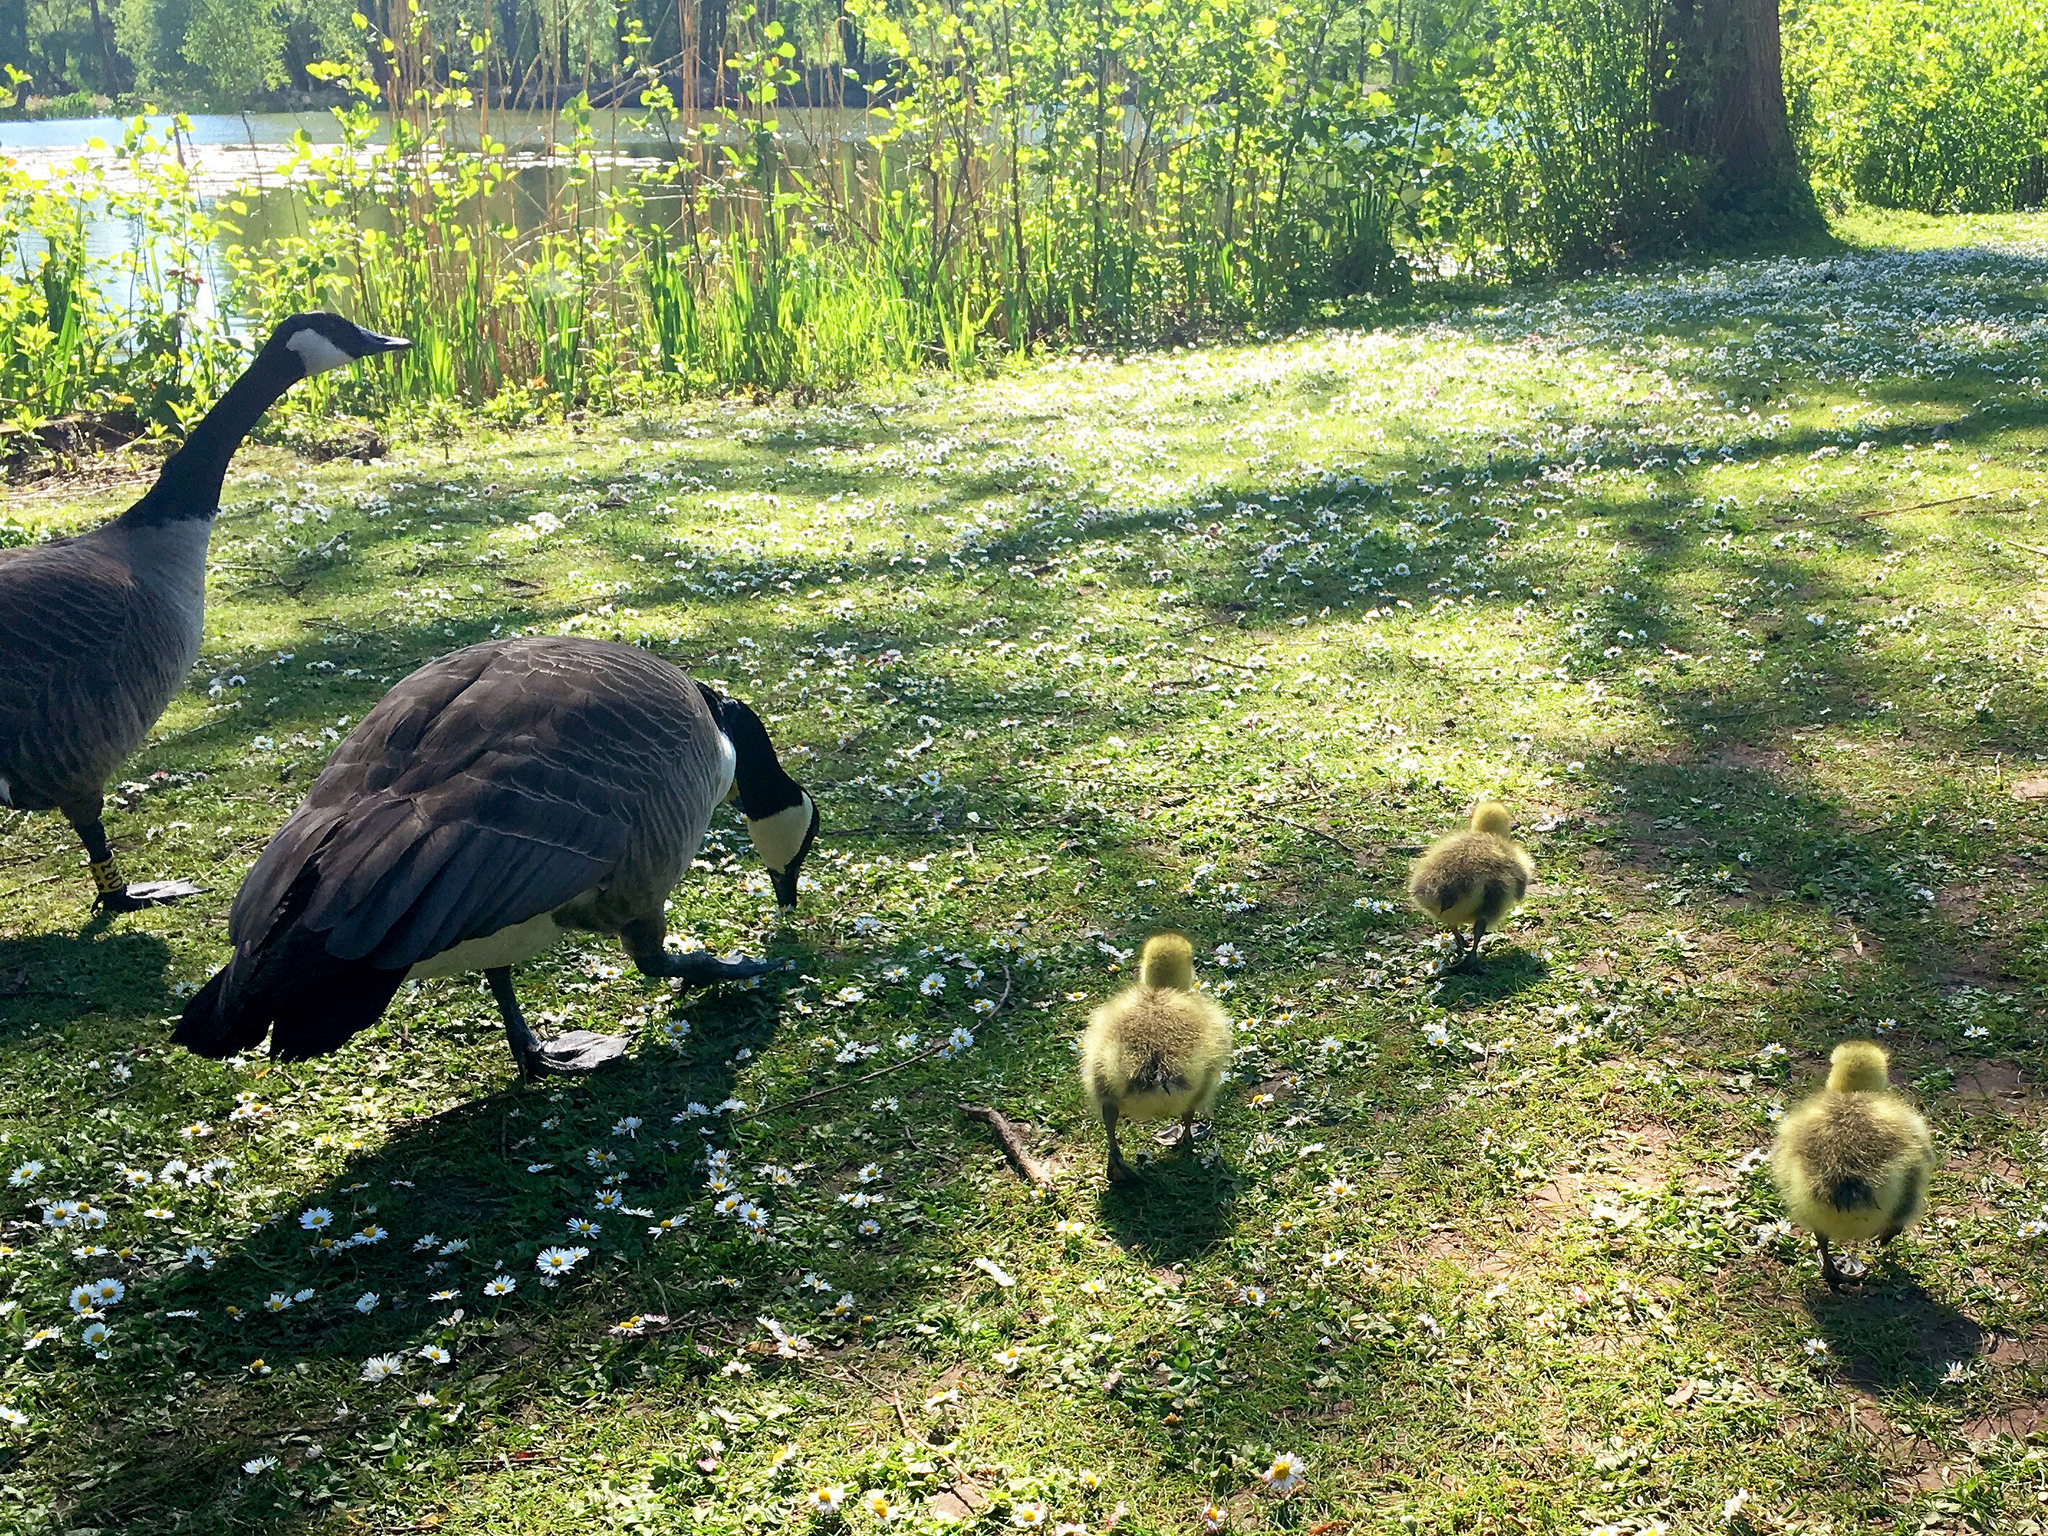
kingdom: Animalia
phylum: Chordata
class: Aves
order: Anseriformes
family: Anatidae
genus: Branta
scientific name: Branta canadensis
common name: Canada goose
